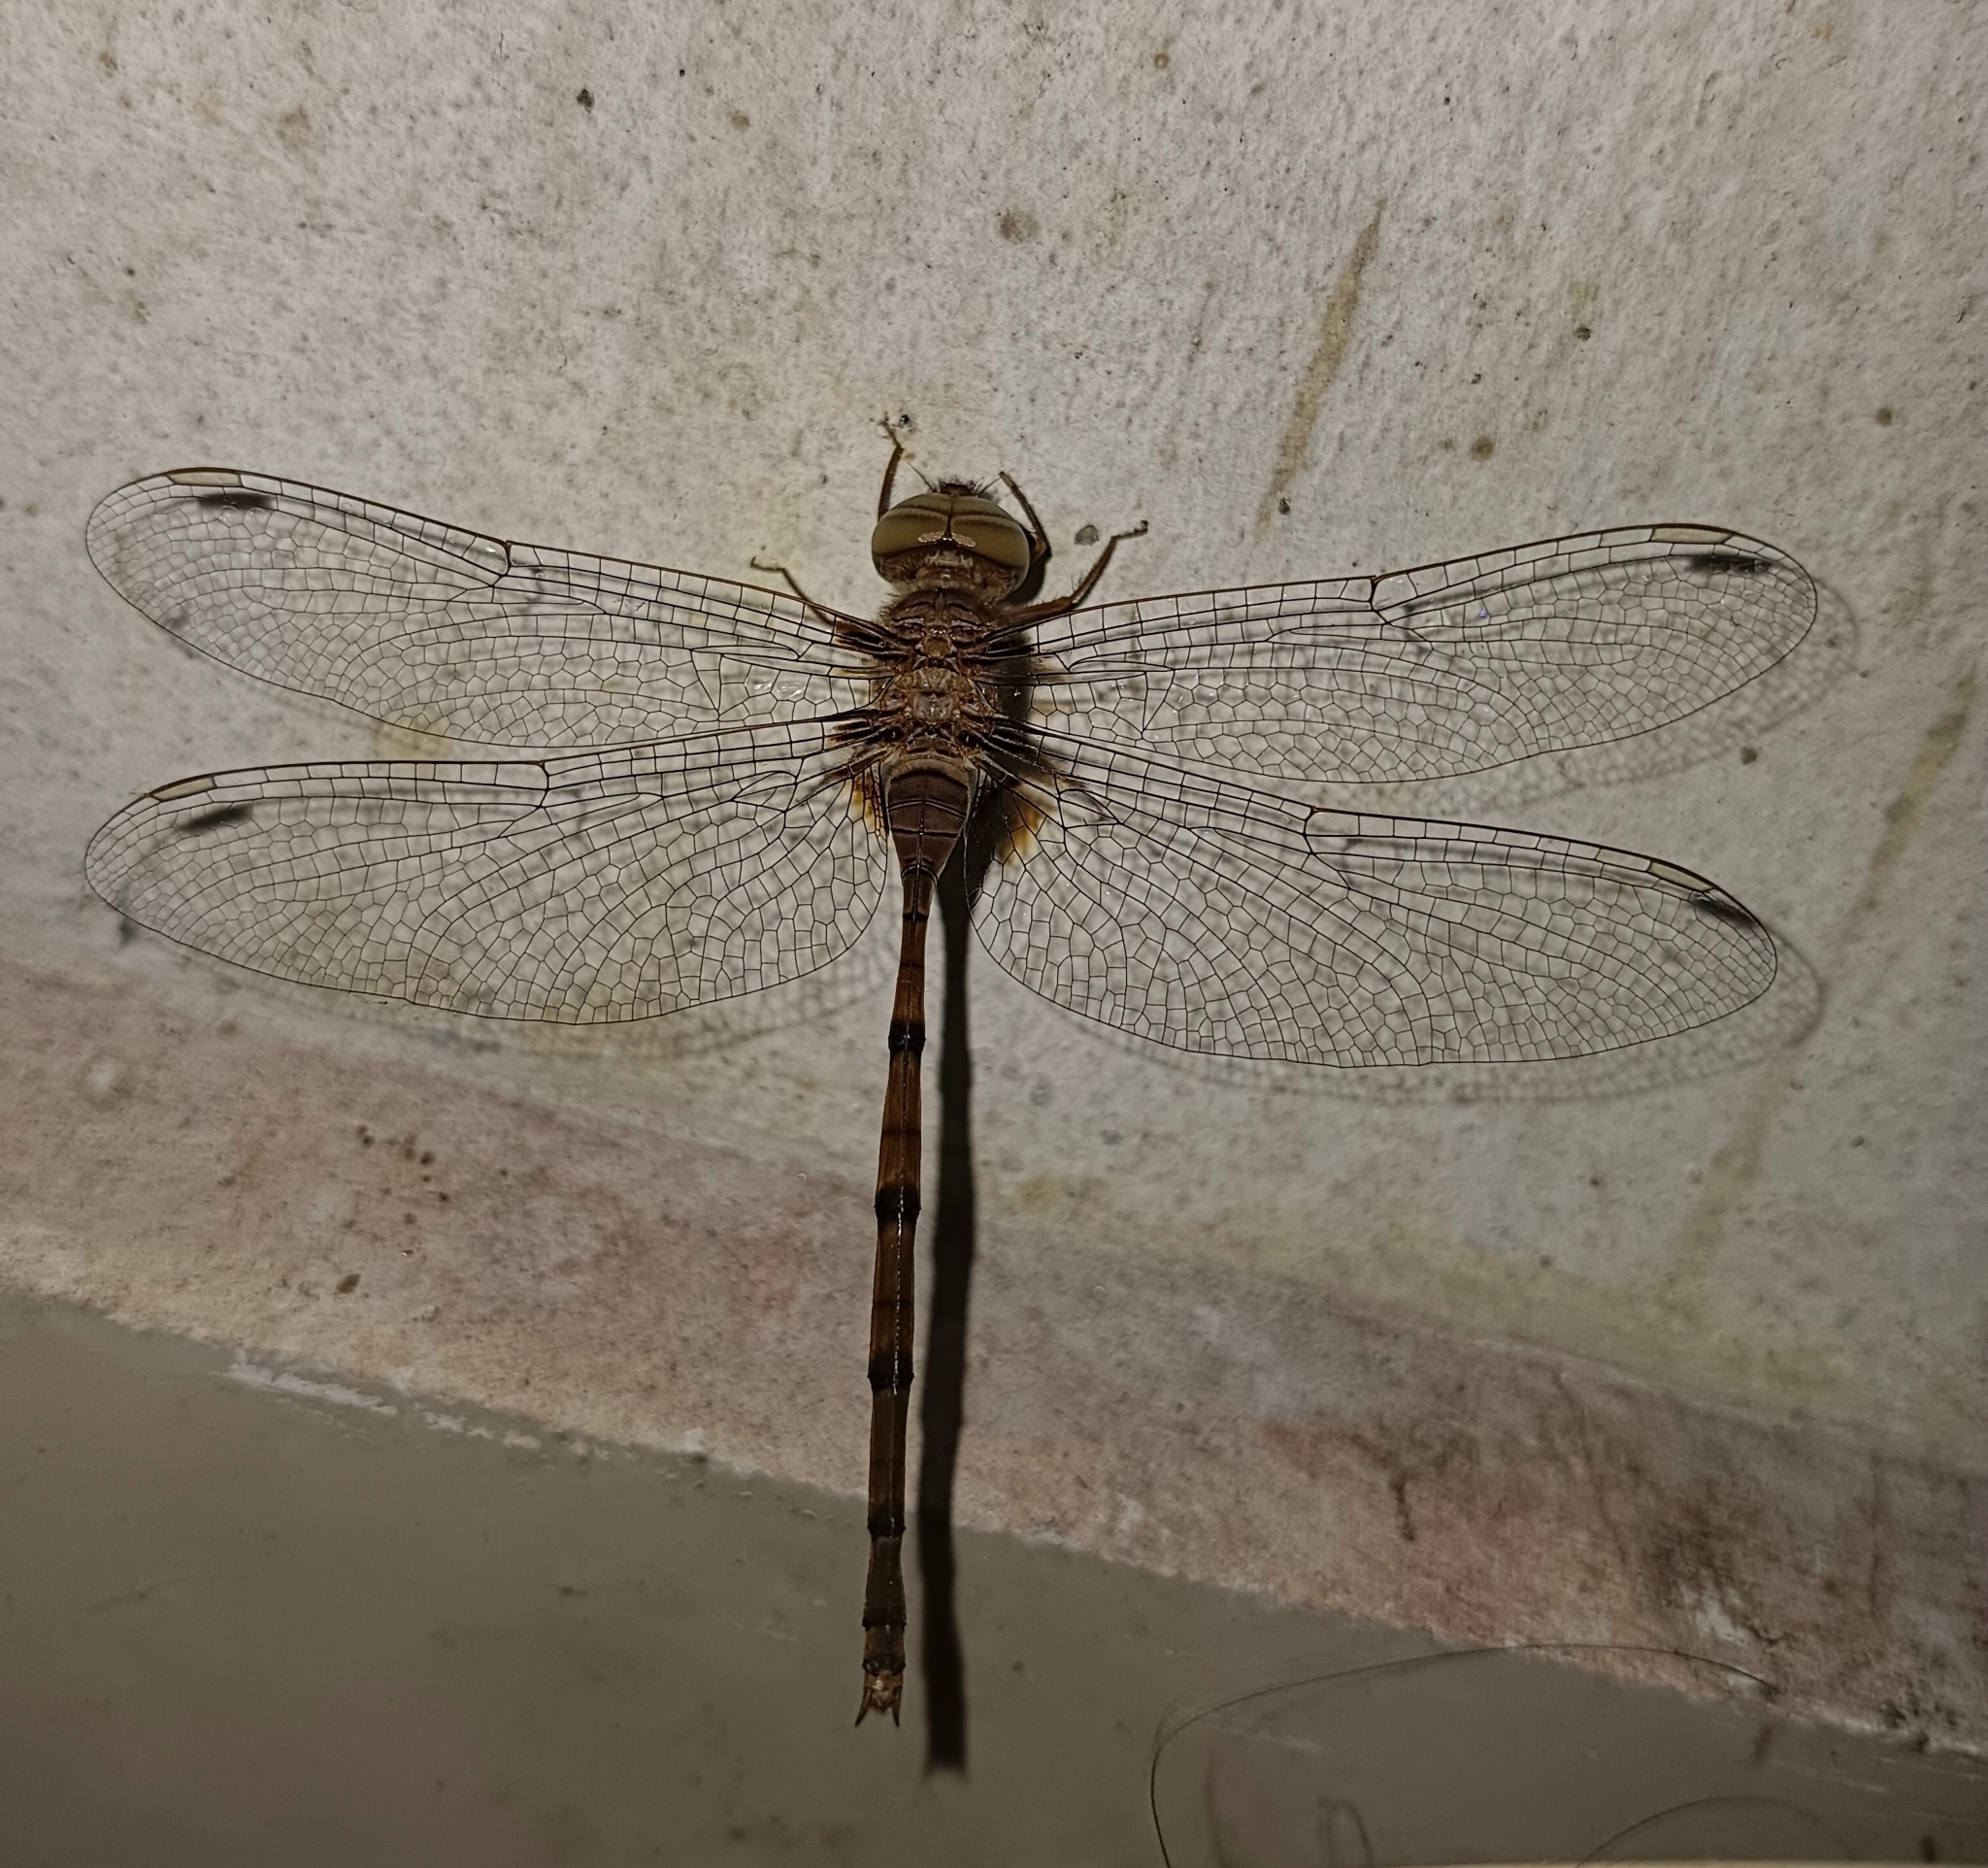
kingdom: Animalia
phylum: Arthropoda
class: Insecta
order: Odonata
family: Libellulidae
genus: Zyxomma
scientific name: Zyxomma petiolatum
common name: Dingy dusk-darter
